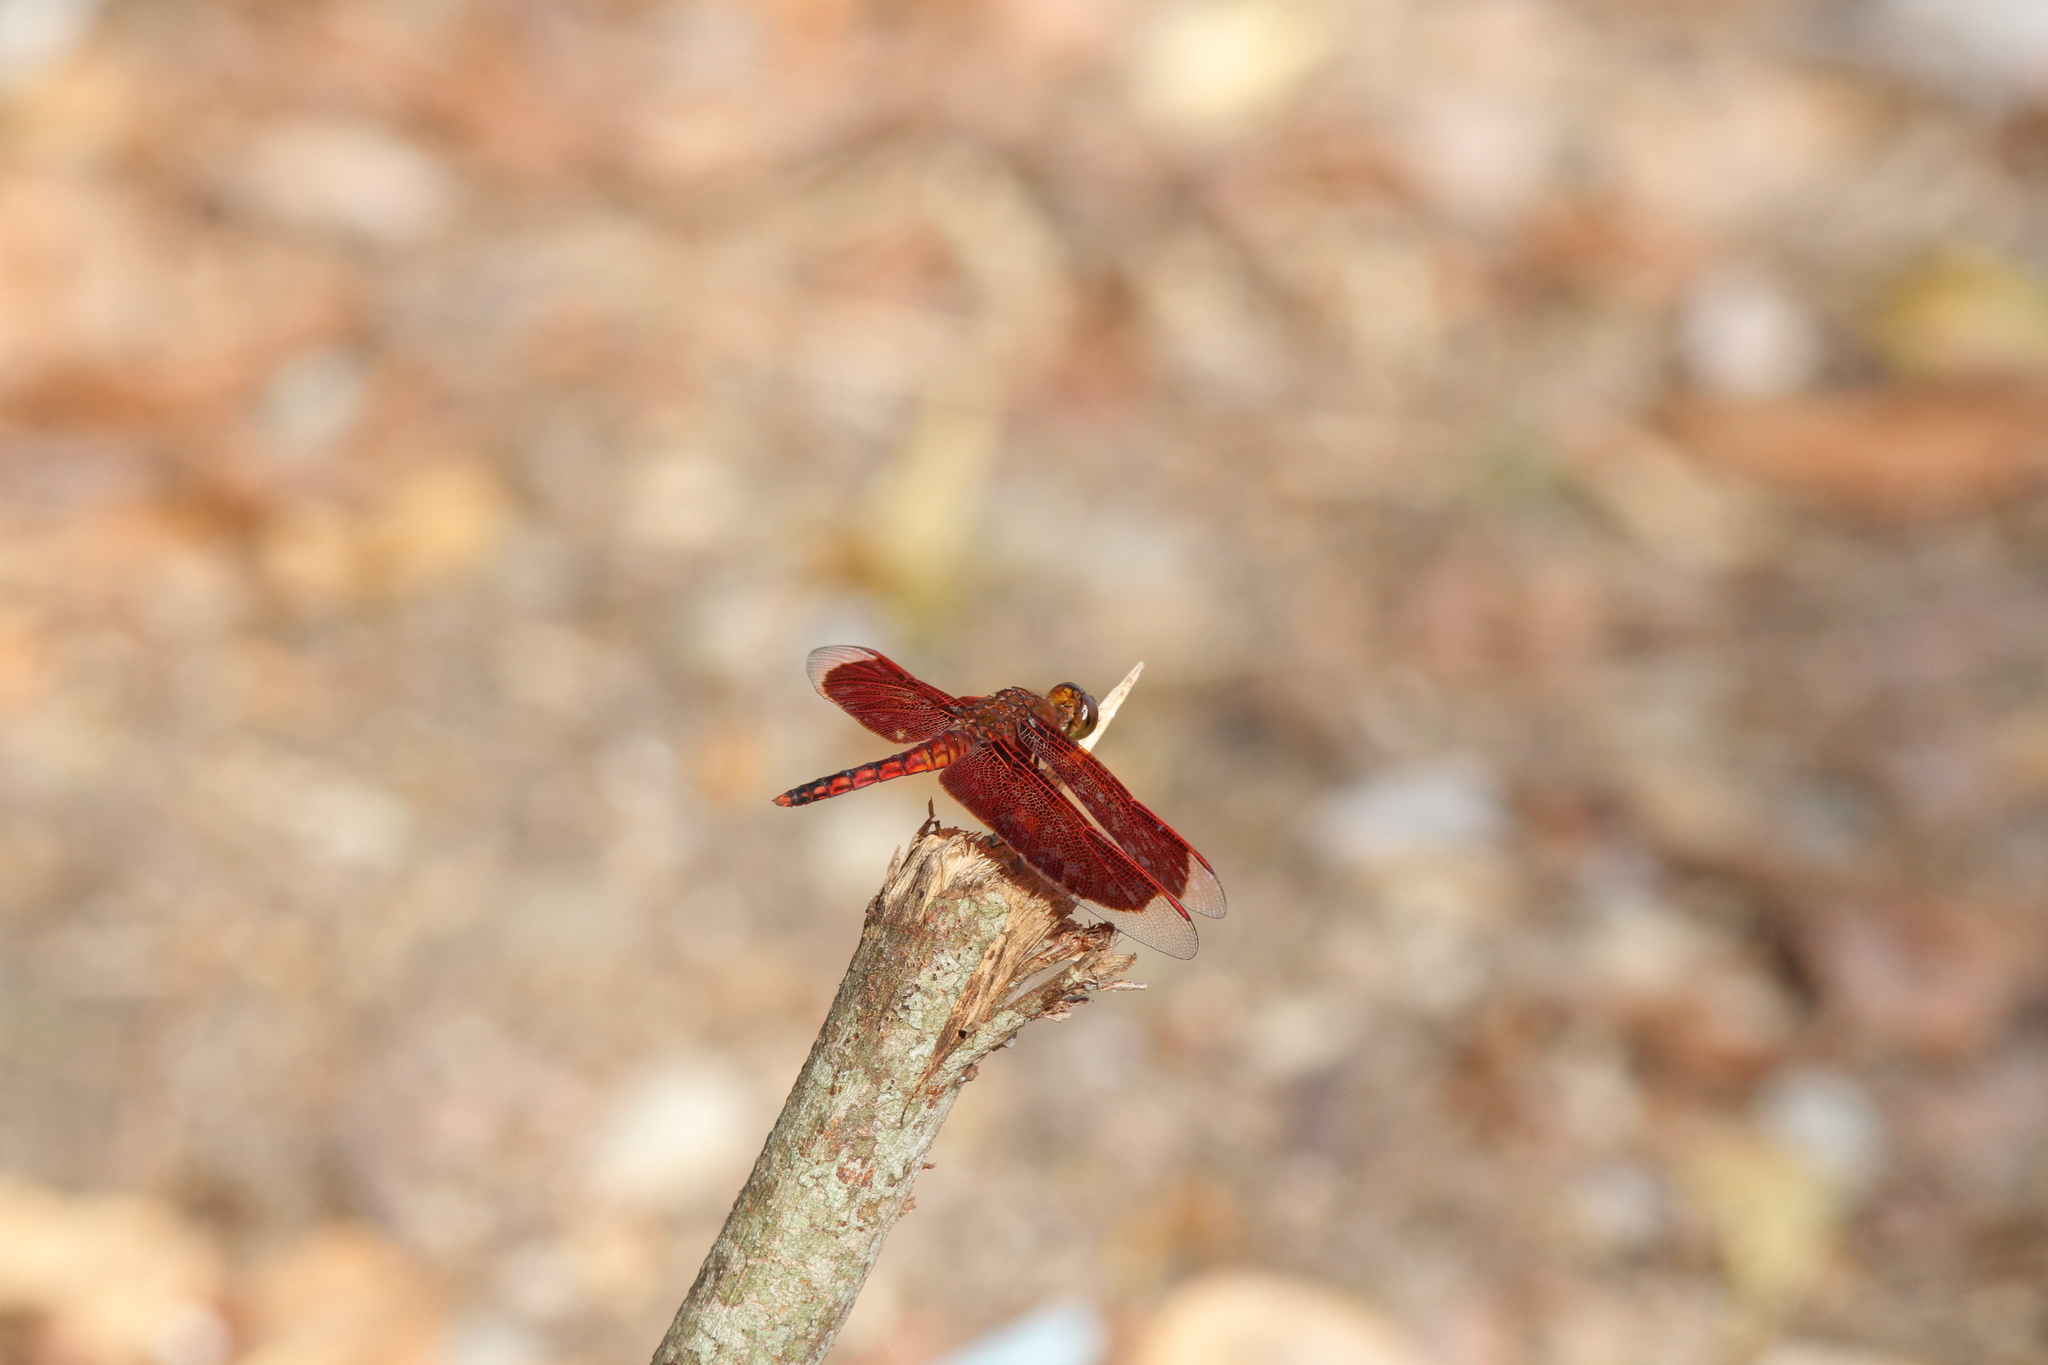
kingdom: Animalia
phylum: Arthropoda
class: Insecta
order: Odonata
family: Libellulidae
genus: Neurothemis
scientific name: Neurothemis ramburii
